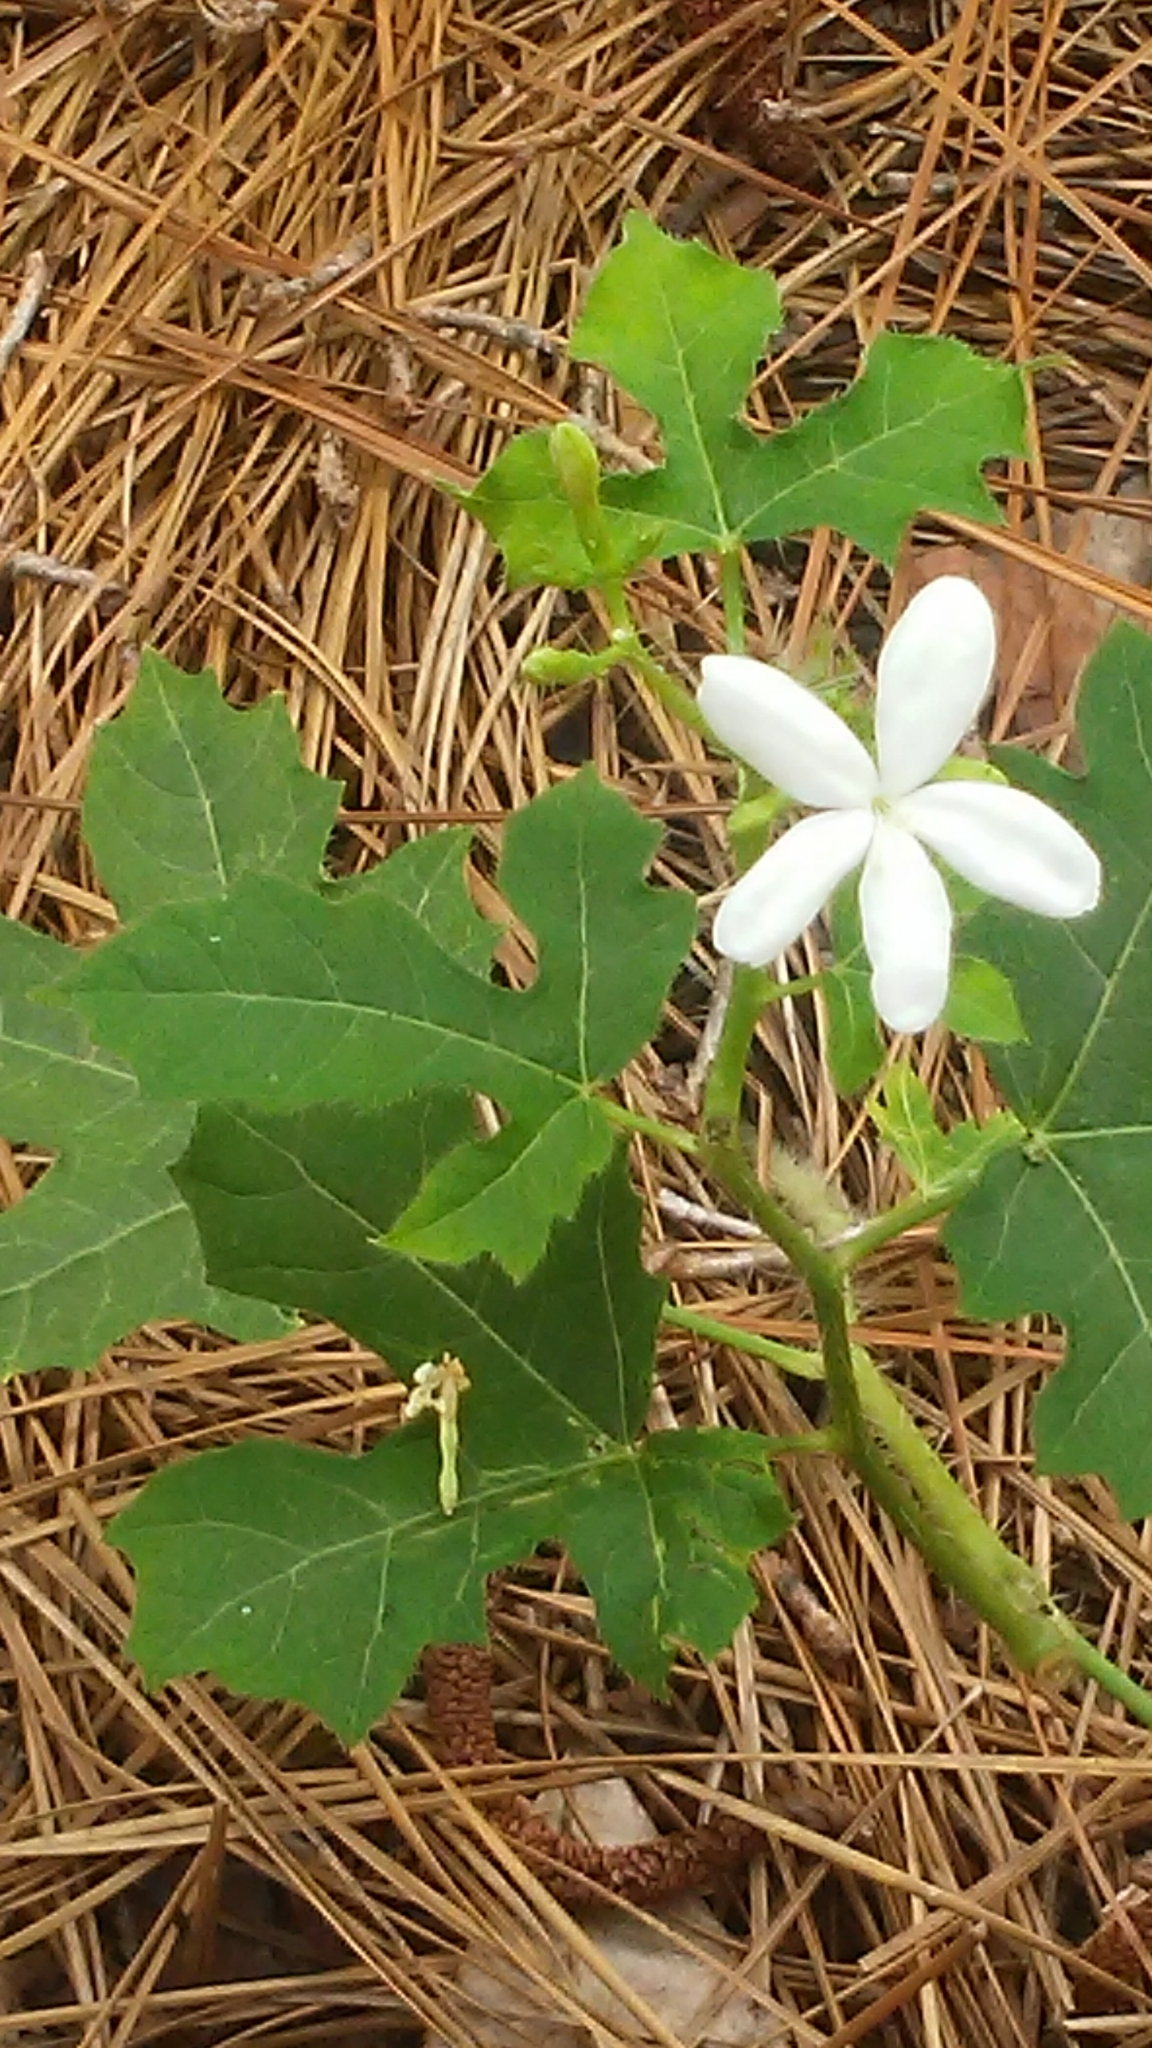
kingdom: Plantae
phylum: Tracheophyta
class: Magnoliopsida
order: Malpighiales
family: Euphorbiaceae
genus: Cnidoscolus
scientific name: Cnidoscolus stimulosus
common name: Bull-nettle
